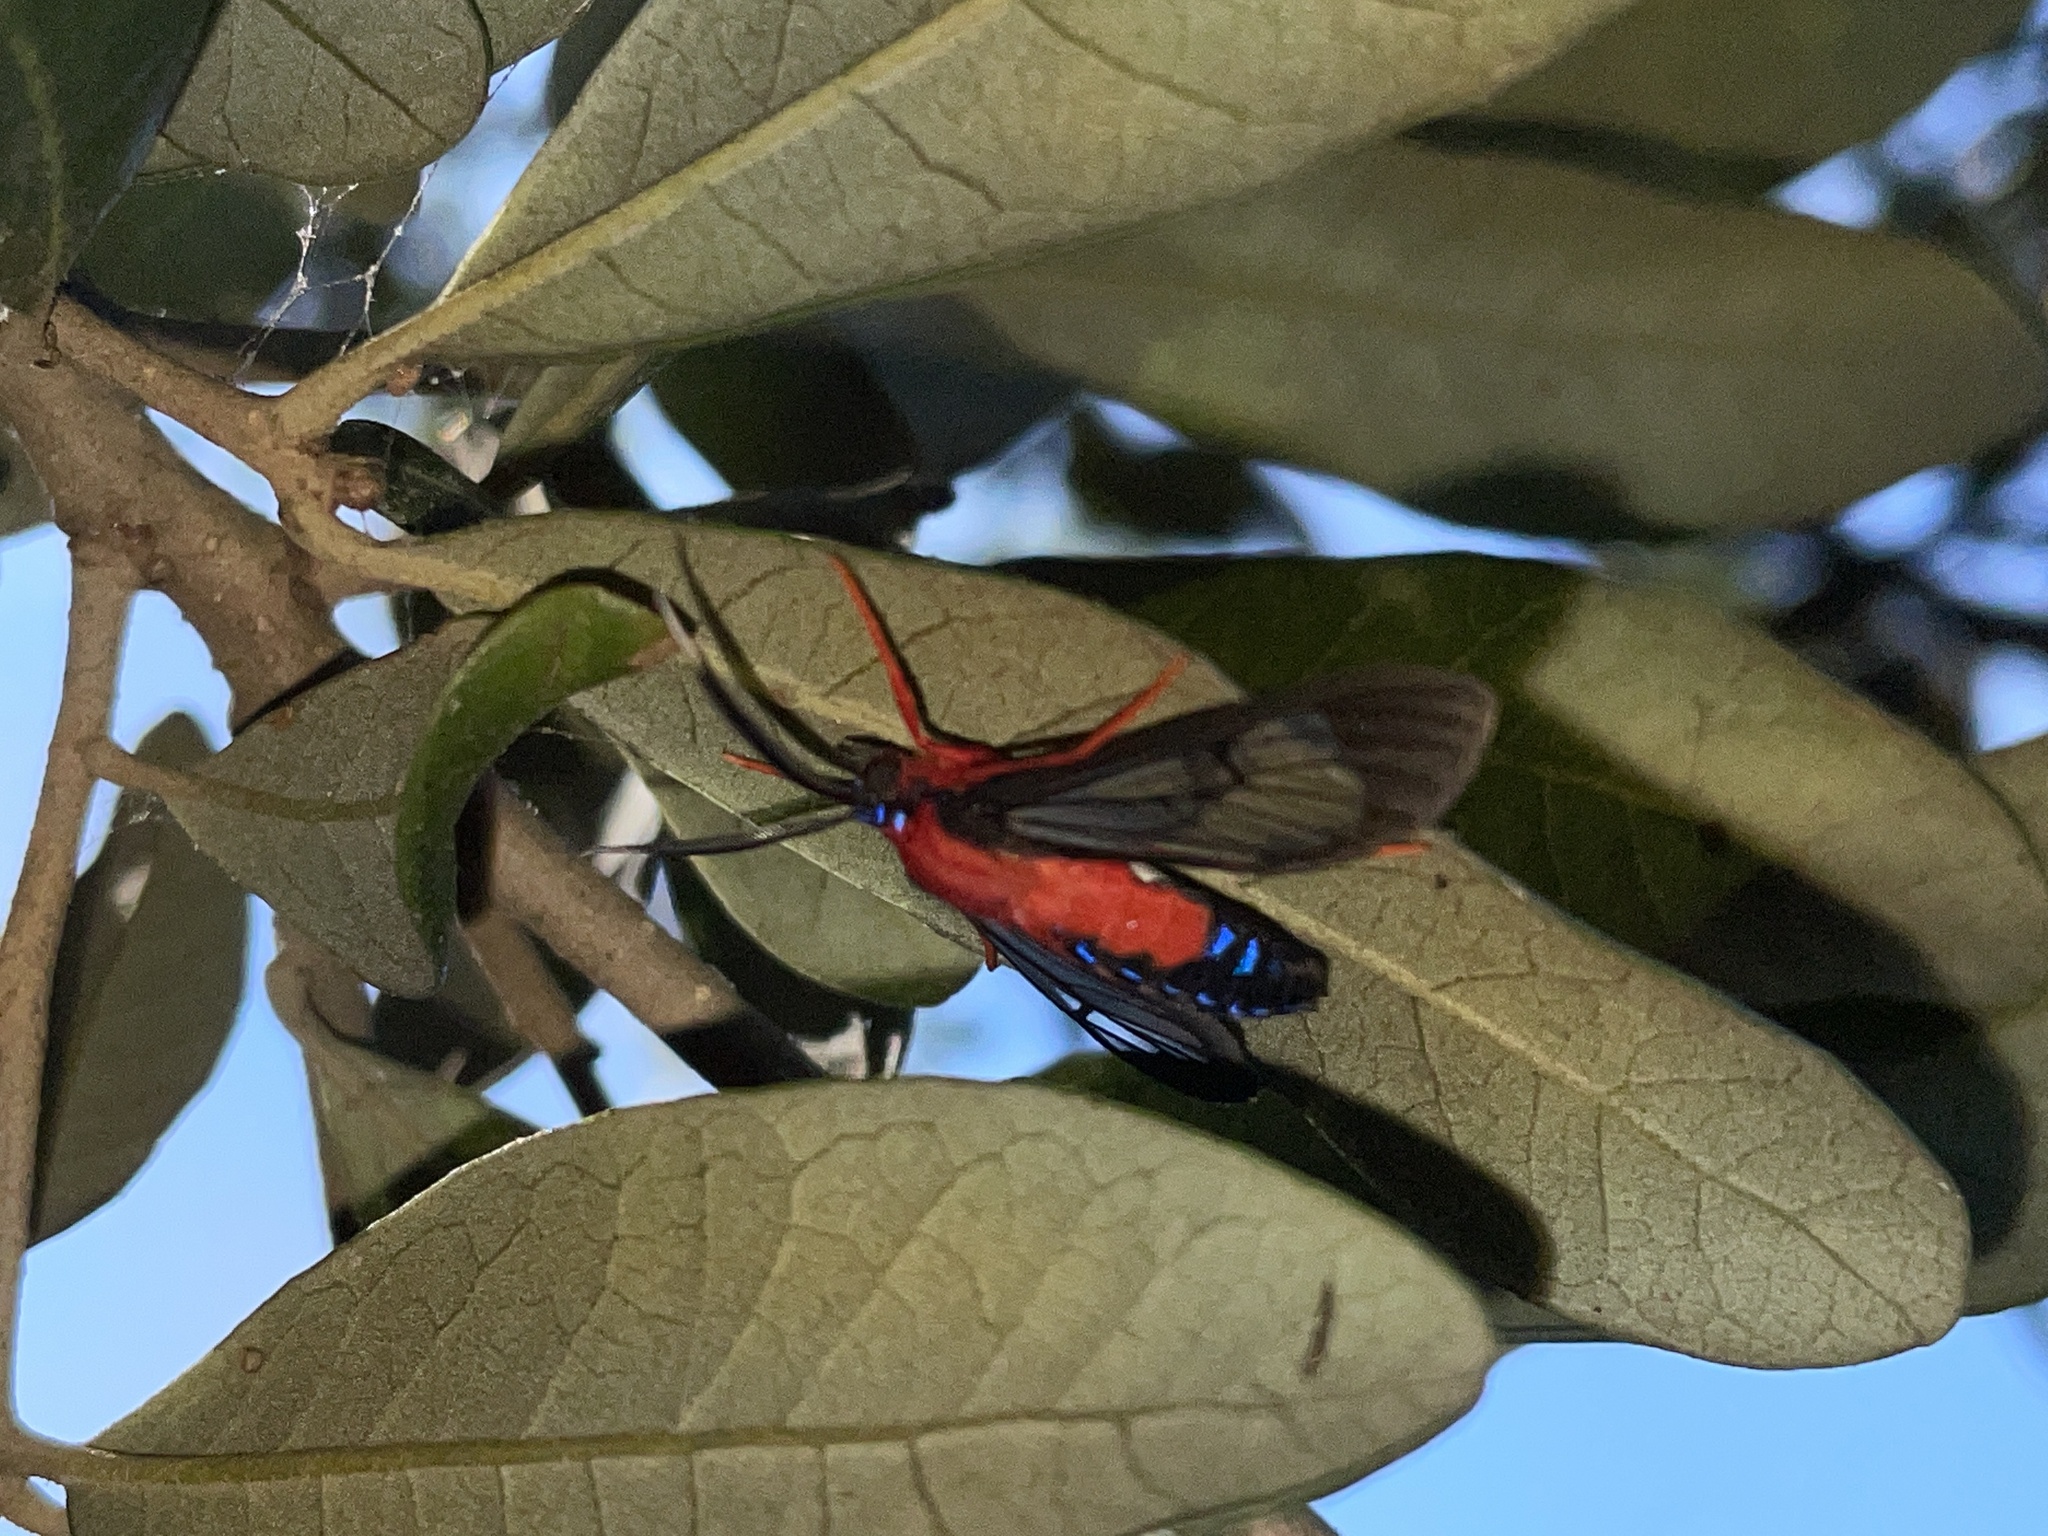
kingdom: Animalia
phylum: Arthropoda
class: Insecta
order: Lepidoptera
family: Erebidae
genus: Cosmosoma
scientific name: Cosmosoma myrodora
